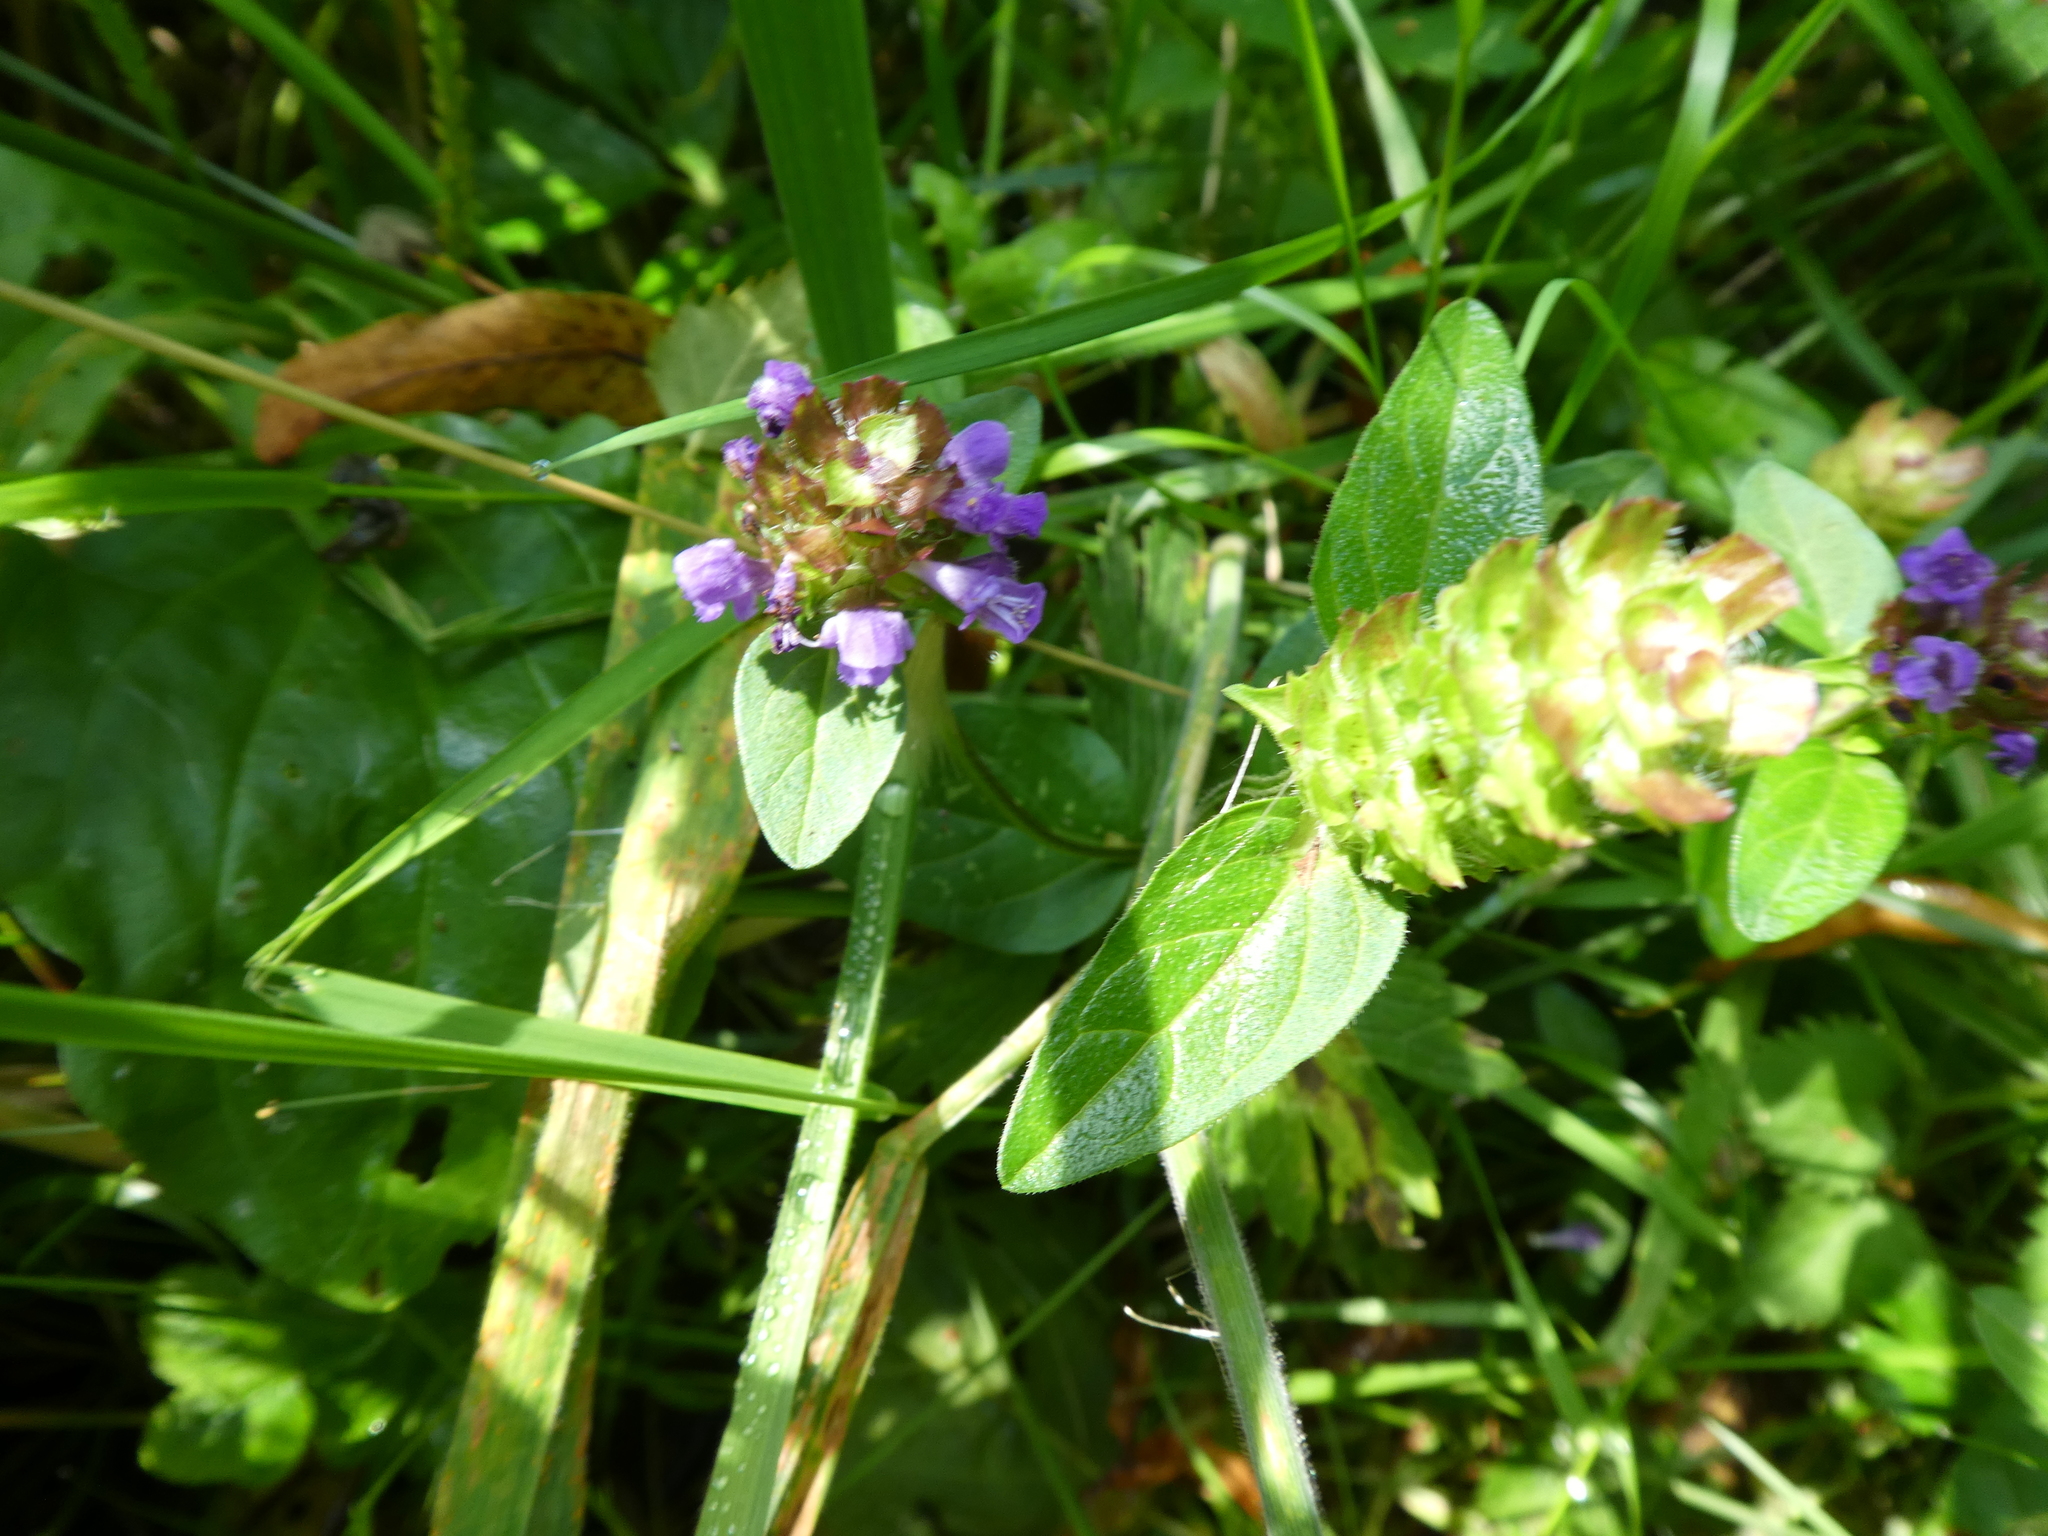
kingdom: Plantae
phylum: Tracheophyta
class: Magnoliopsida
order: Lamiales
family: Lamiaceae
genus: Prunella
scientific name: Prunella vulgaris
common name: Heal-all
